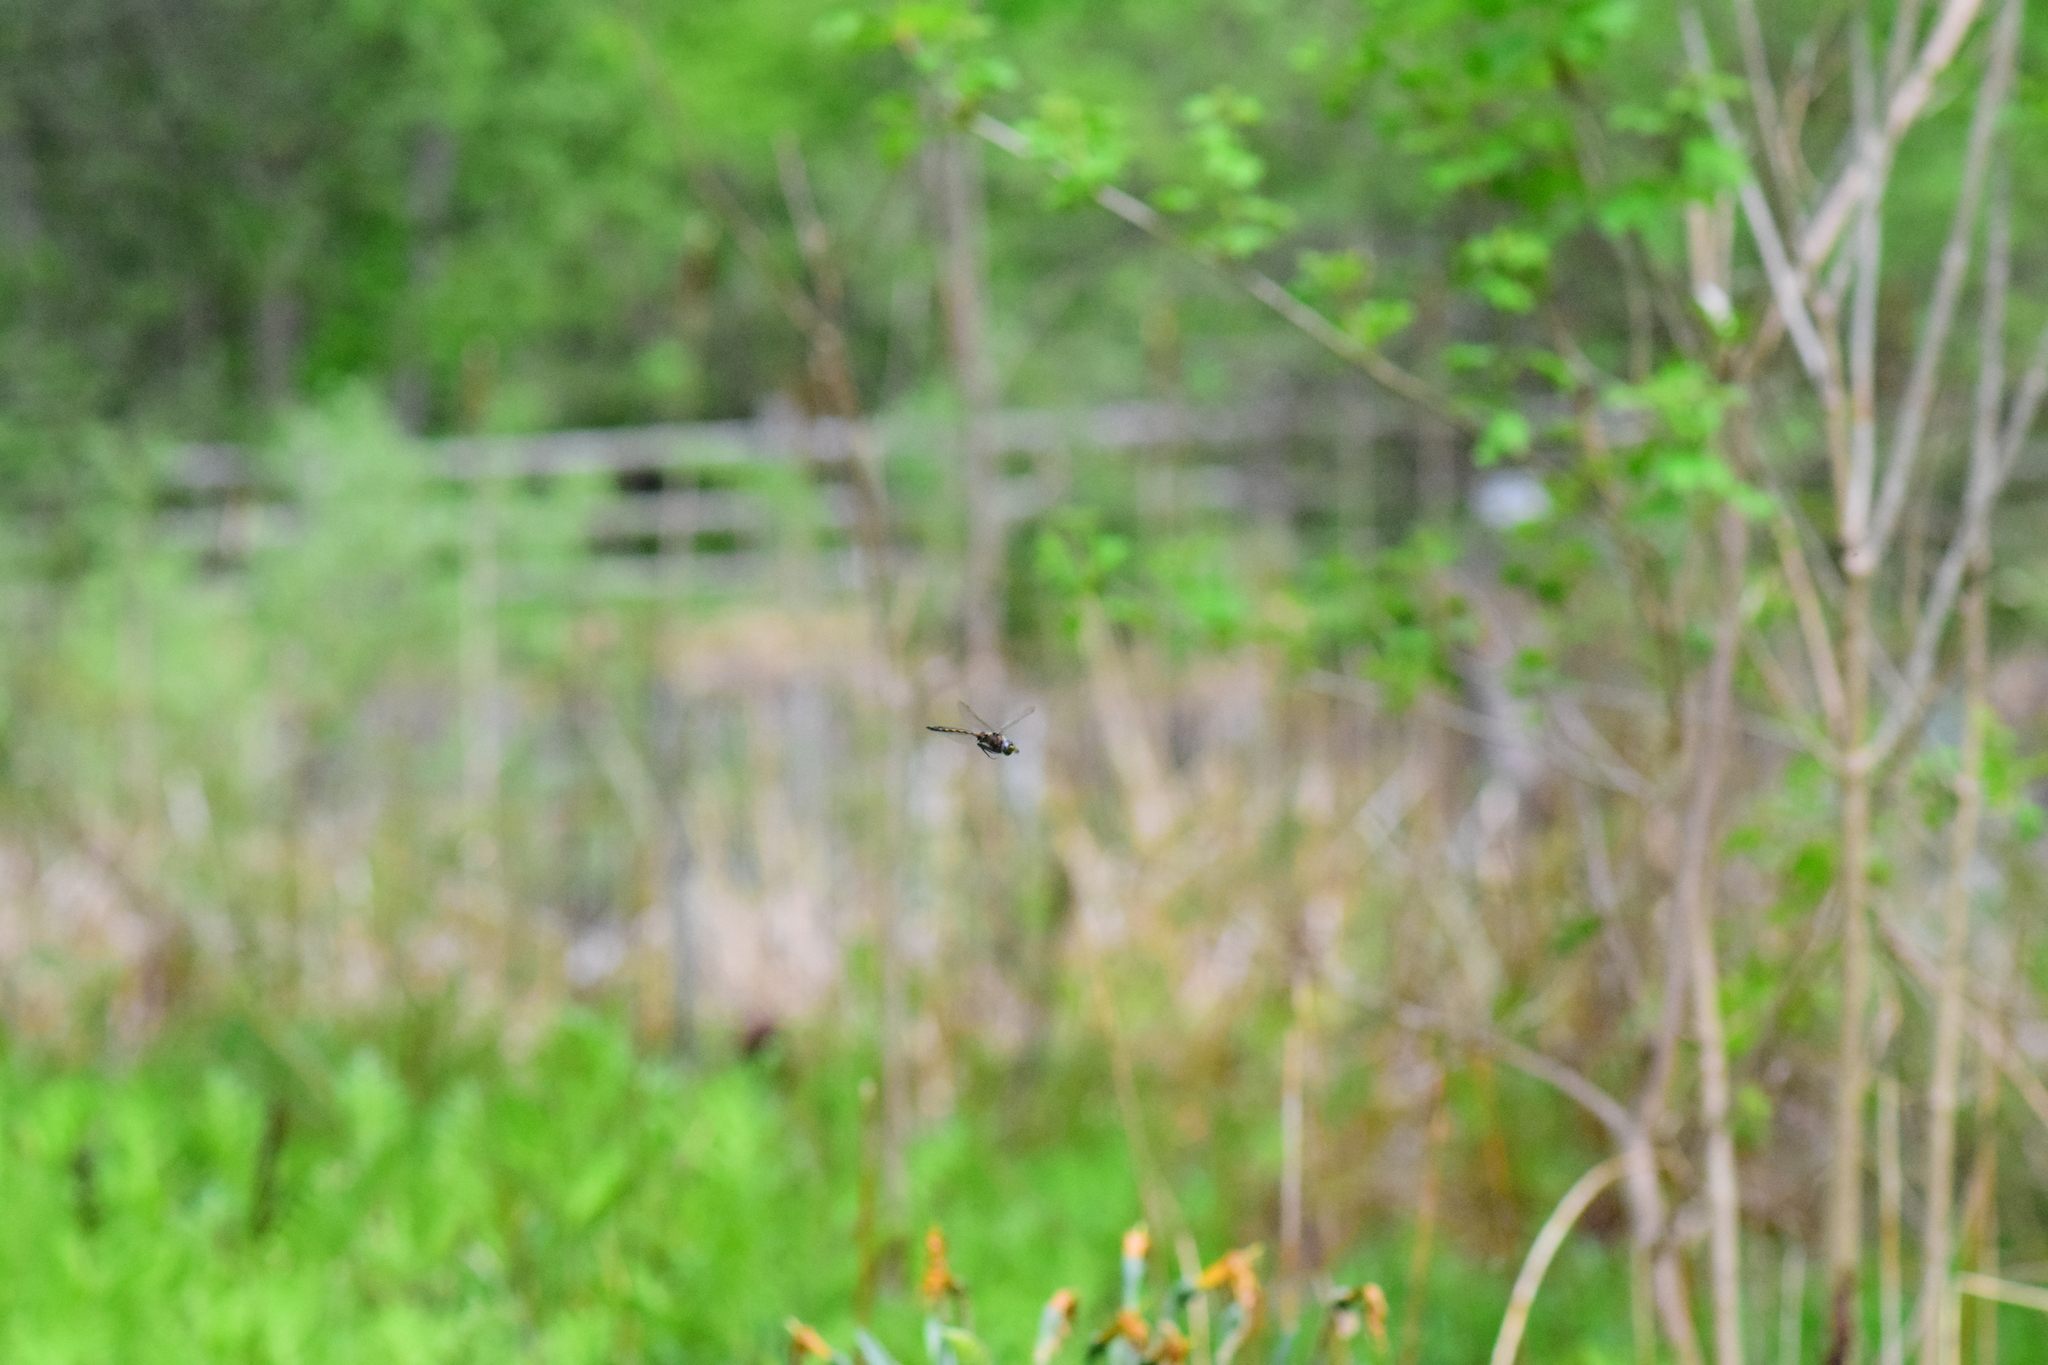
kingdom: Animalia
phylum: Arthropoda
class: Insecta
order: Odonata
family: Corduliidae
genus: Epitheca
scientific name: Epitheca canis
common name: Beaverpond baskettail
